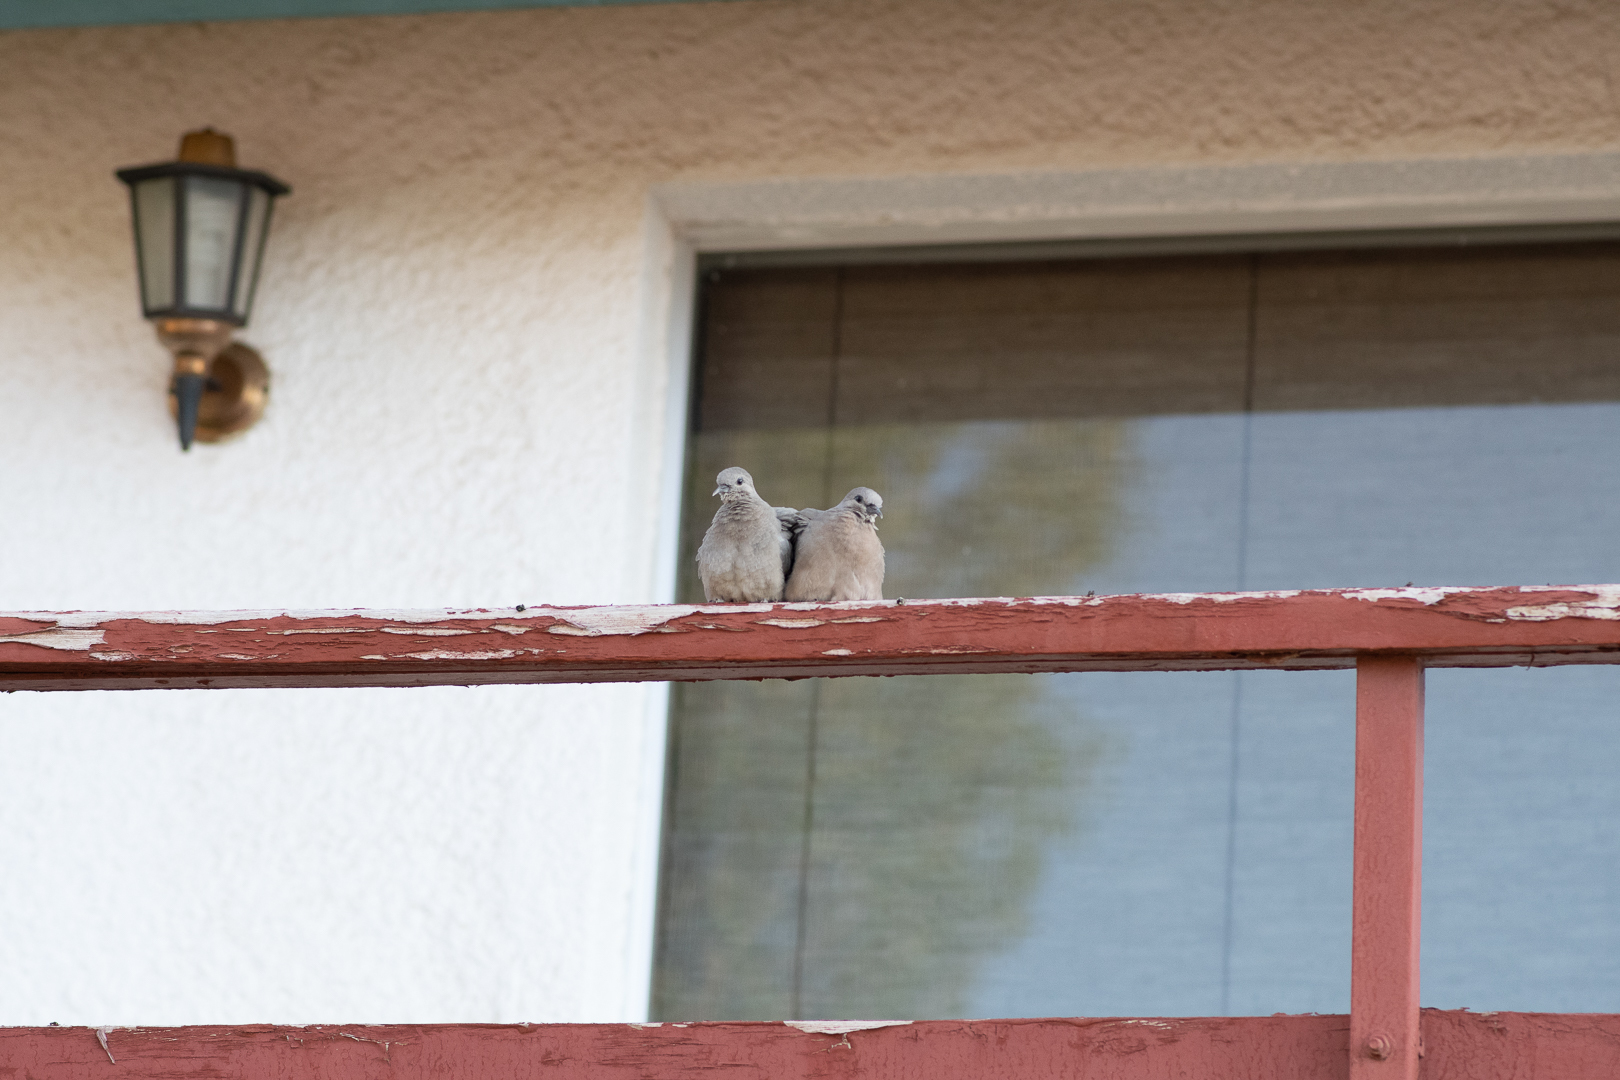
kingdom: Animalia
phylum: Chordata
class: Aves
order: Columbiformes
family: Columbidae
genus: Metriopelia
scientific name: Metriopelia melanoptera
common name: Black-winged ground dove
